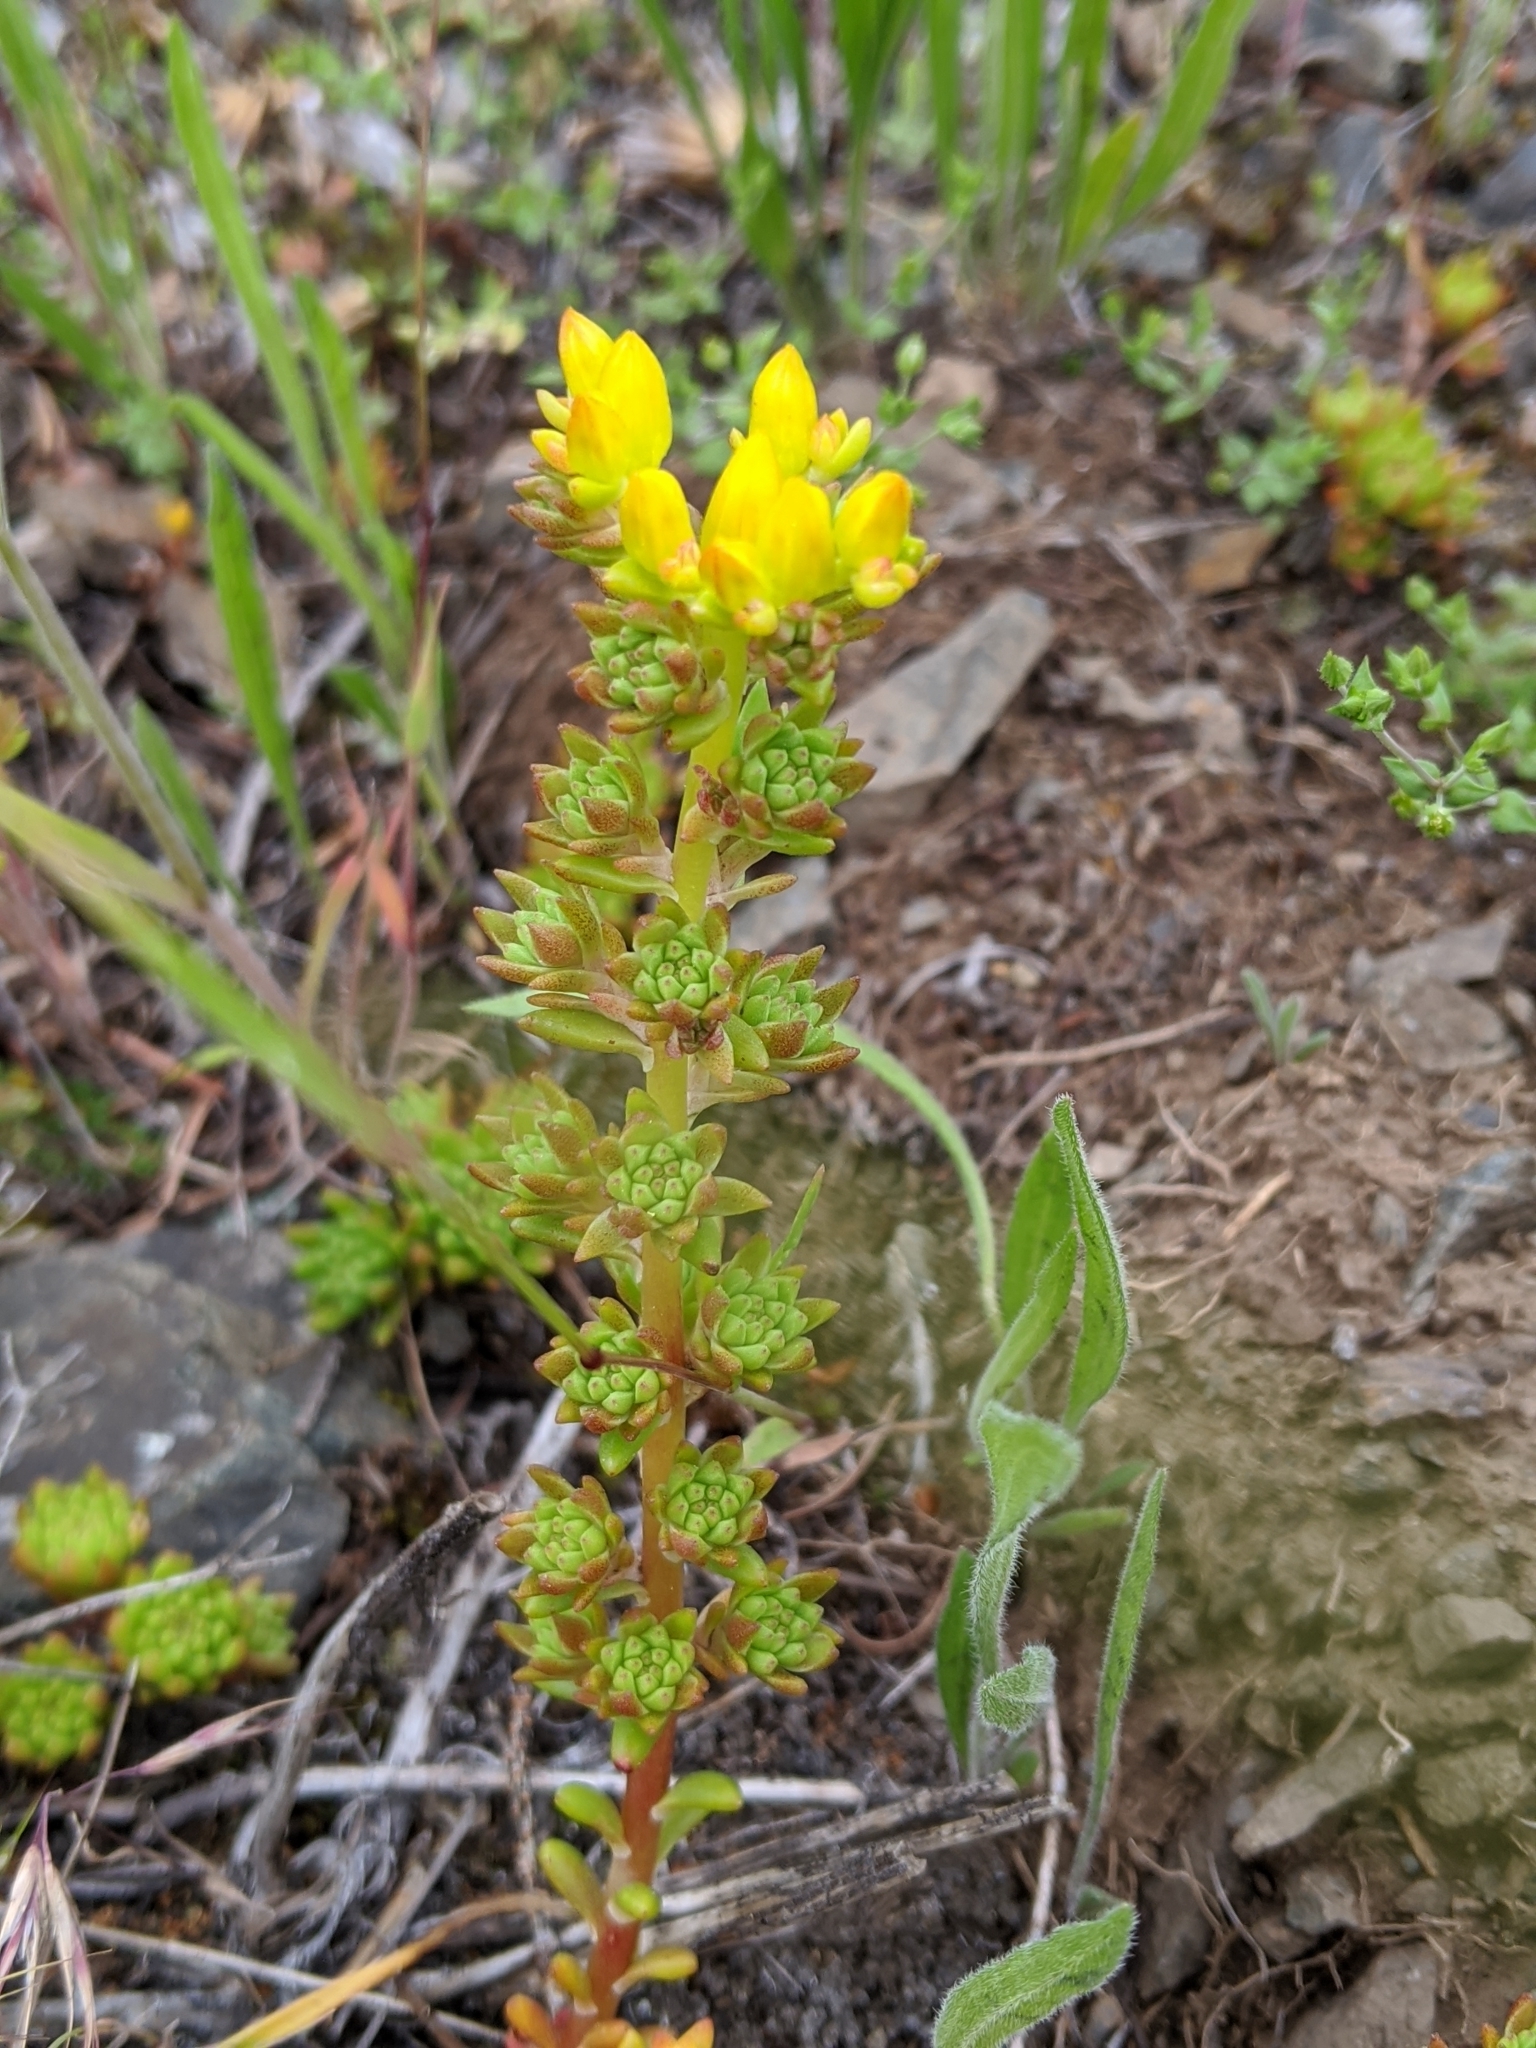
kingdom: Plantae
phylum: Tracheophyta
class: Magnoliopsida
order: Saxifragales
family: Crassulaceae
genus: Sedum
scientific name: Sedum stenopetalum
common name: Narrow-petaled stonecrop
